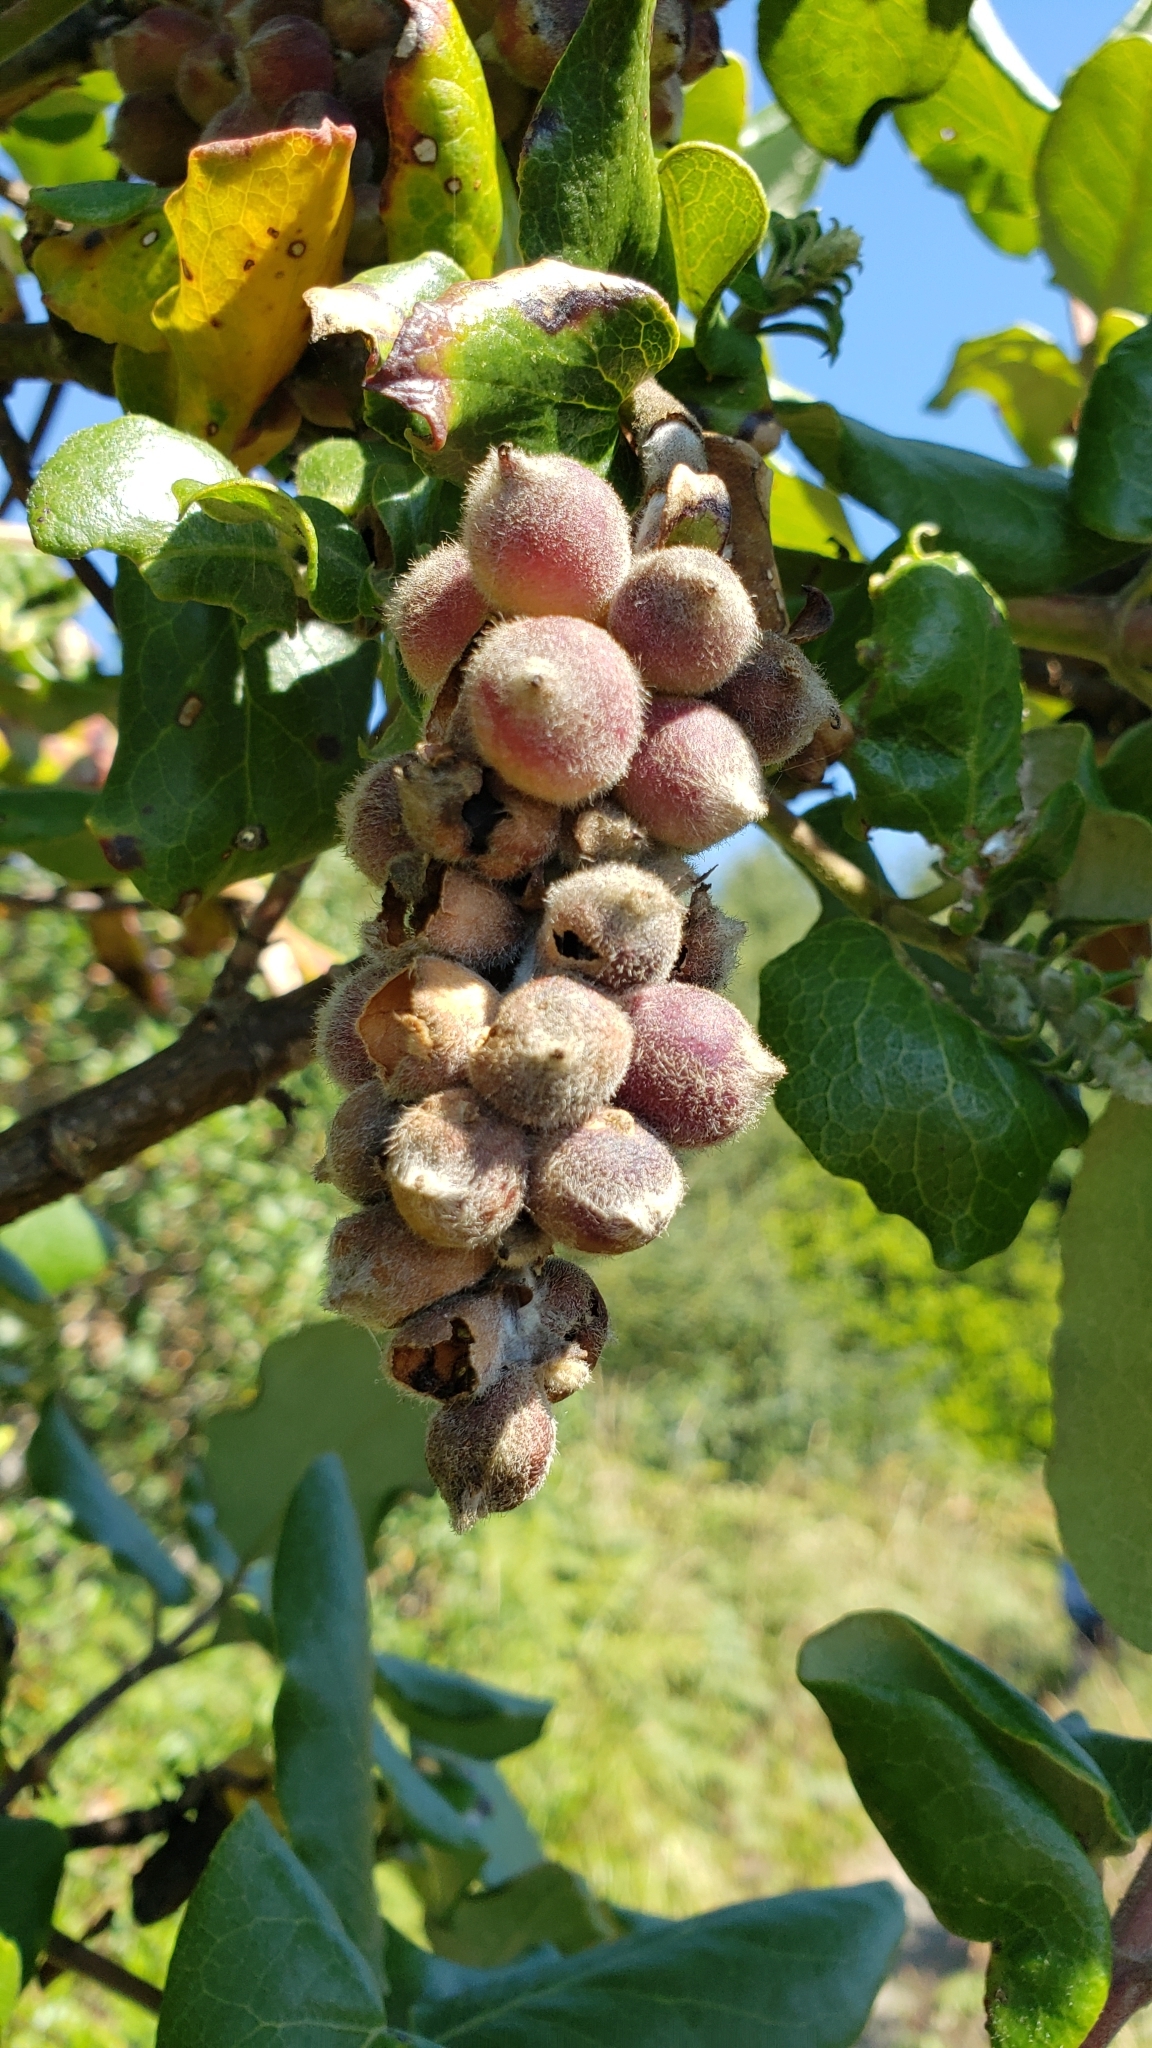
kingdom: Plantae
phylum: Tracheophyta
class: Magnoliopsida
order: Garryales
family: Garryaceae
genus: Garrya
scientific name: Garrya elliptica
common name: Silk-tassel
